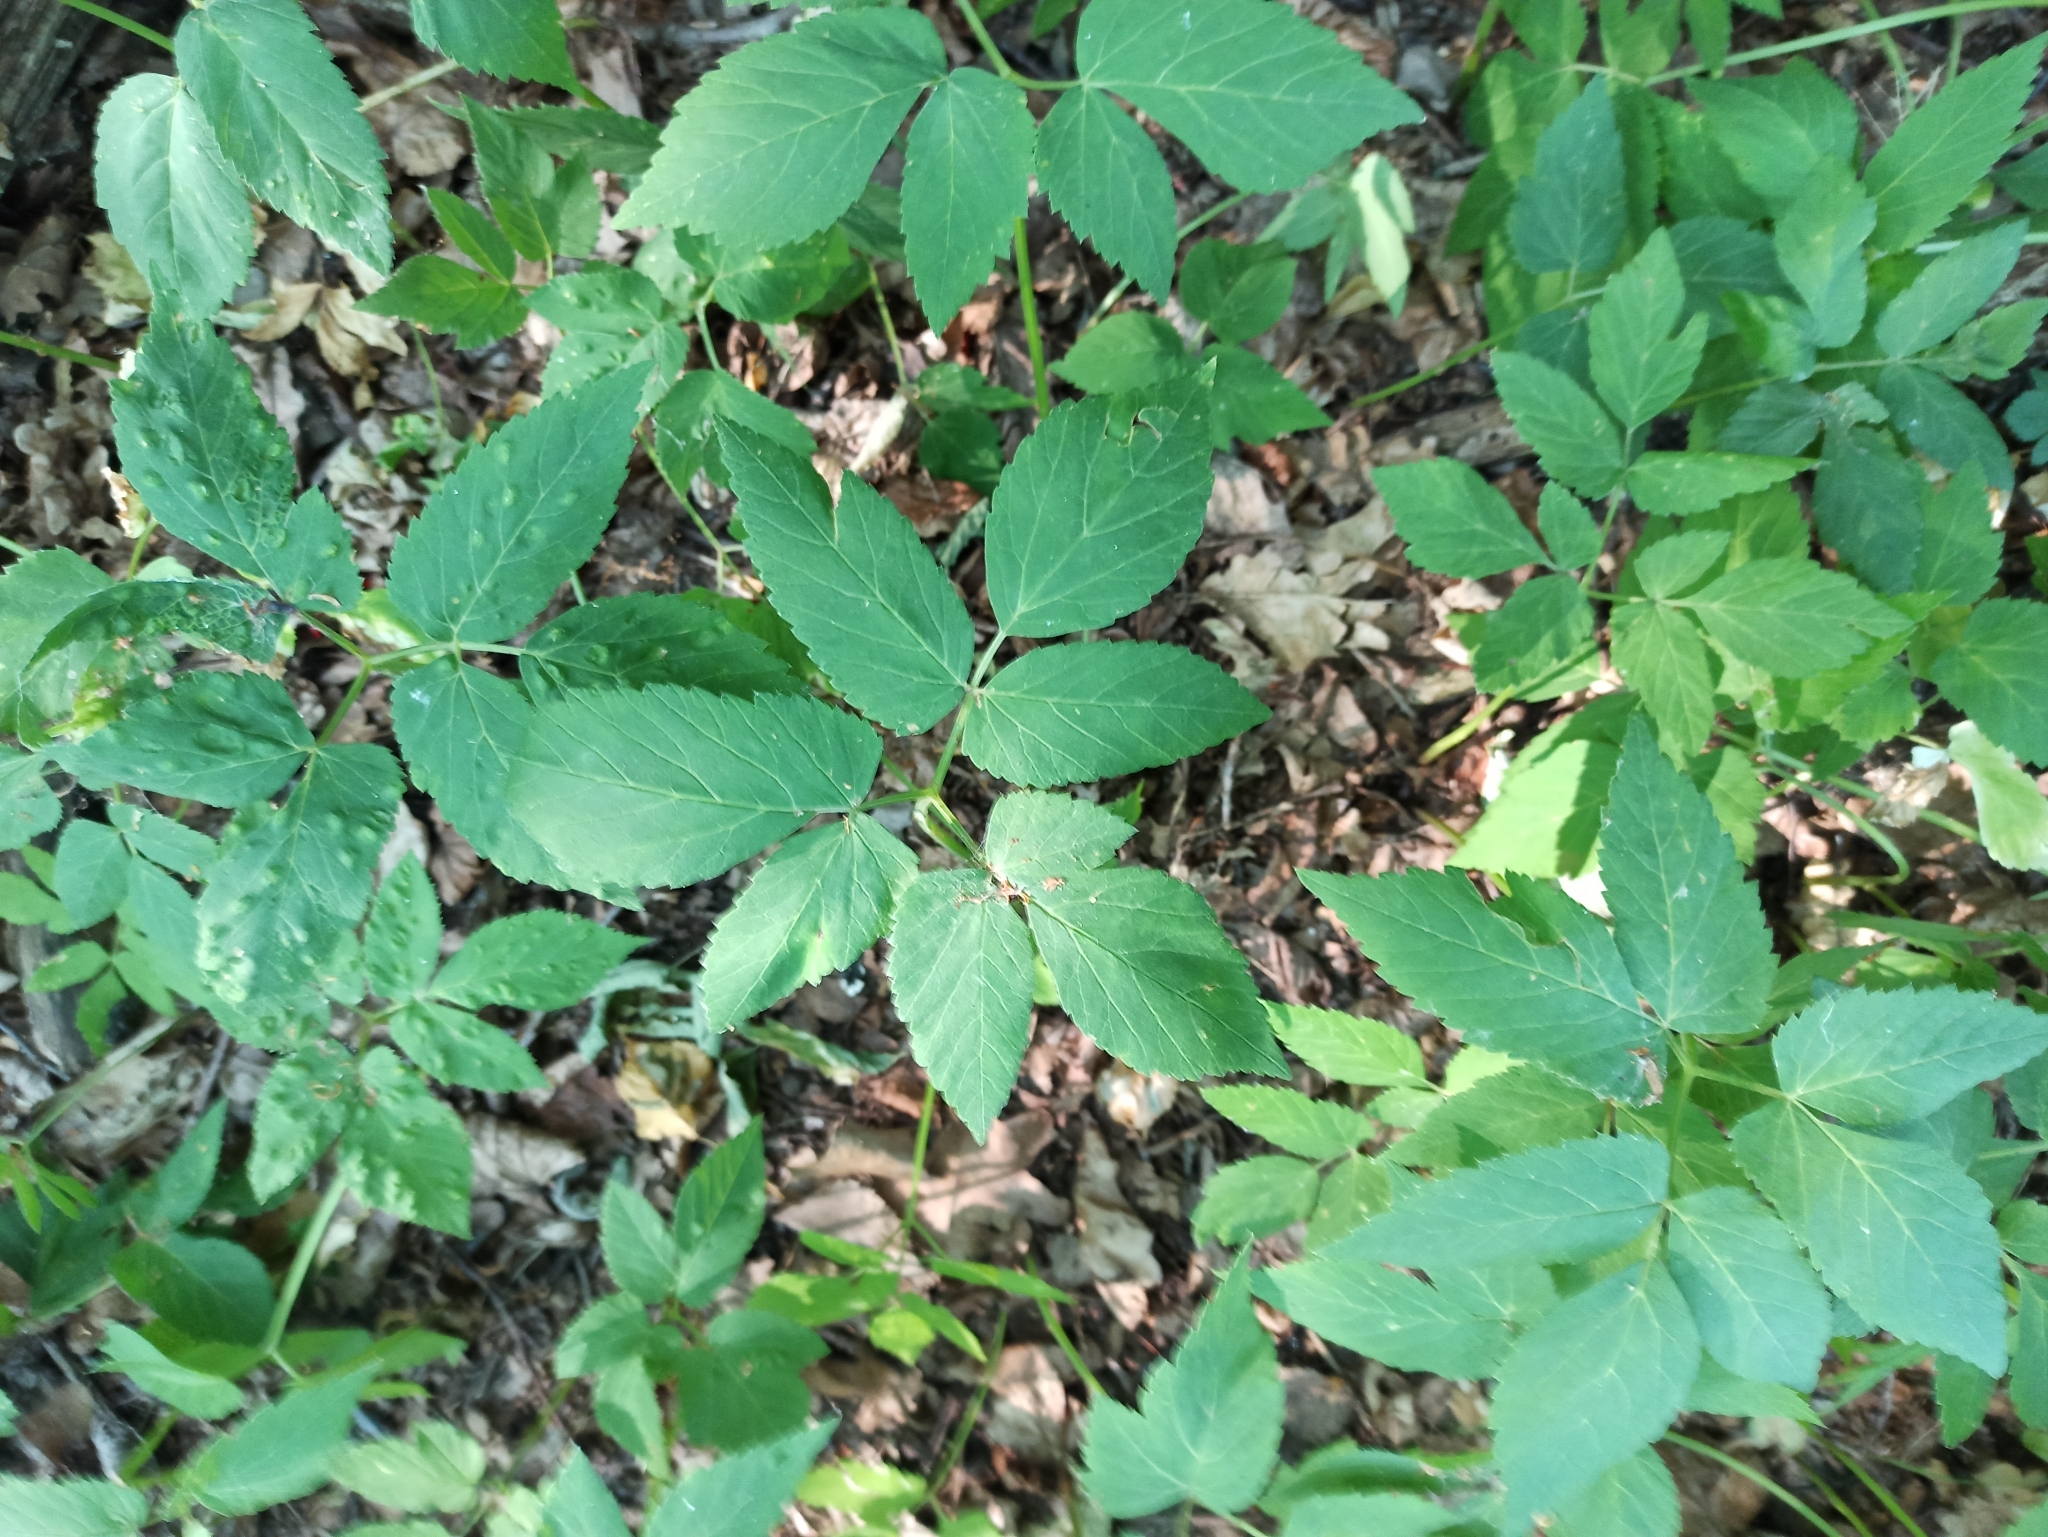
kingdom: Plantae
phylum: Tracheophyta
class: Magnoliopsida
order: Apiales
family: Apiaceae
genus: Aegopodium
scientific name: Aegopodium podagraria
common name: Ground-elder
